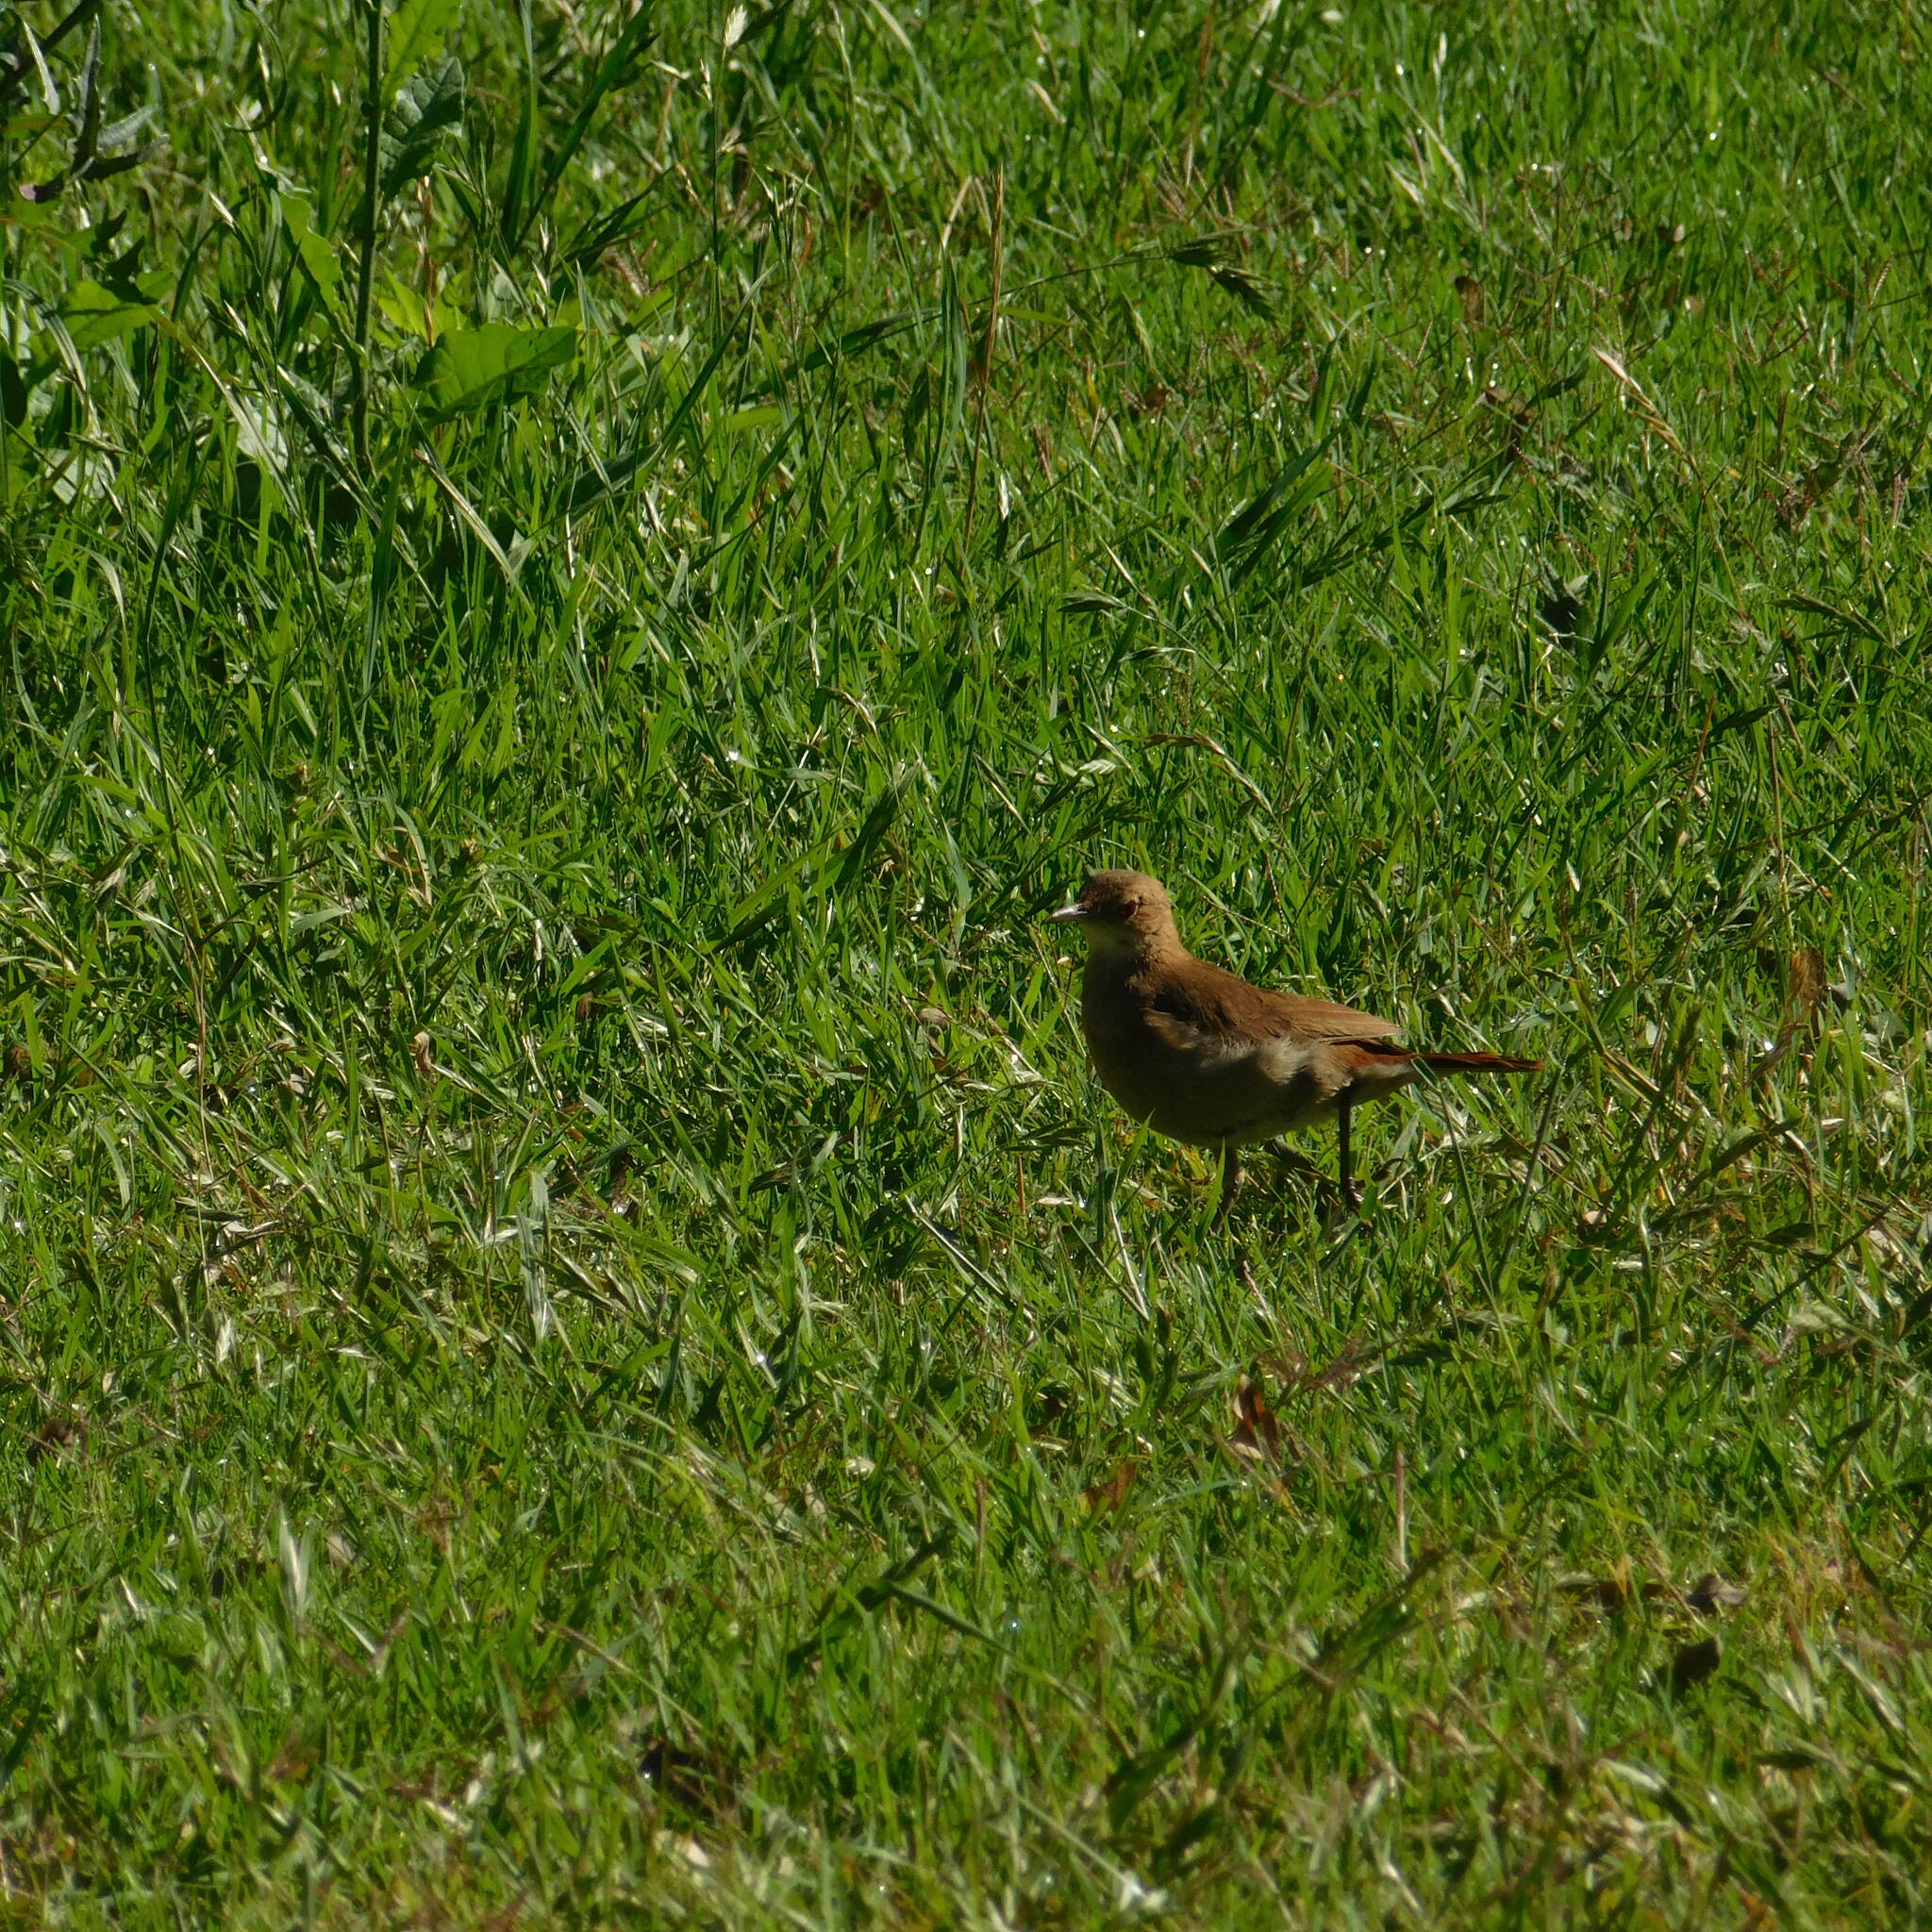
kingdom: Animalia
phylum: Chordata
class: Aves
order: Passeriformes
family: Furnariidae
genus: Furnarius
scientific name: Furnarius rufus
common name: Rufous hornero
